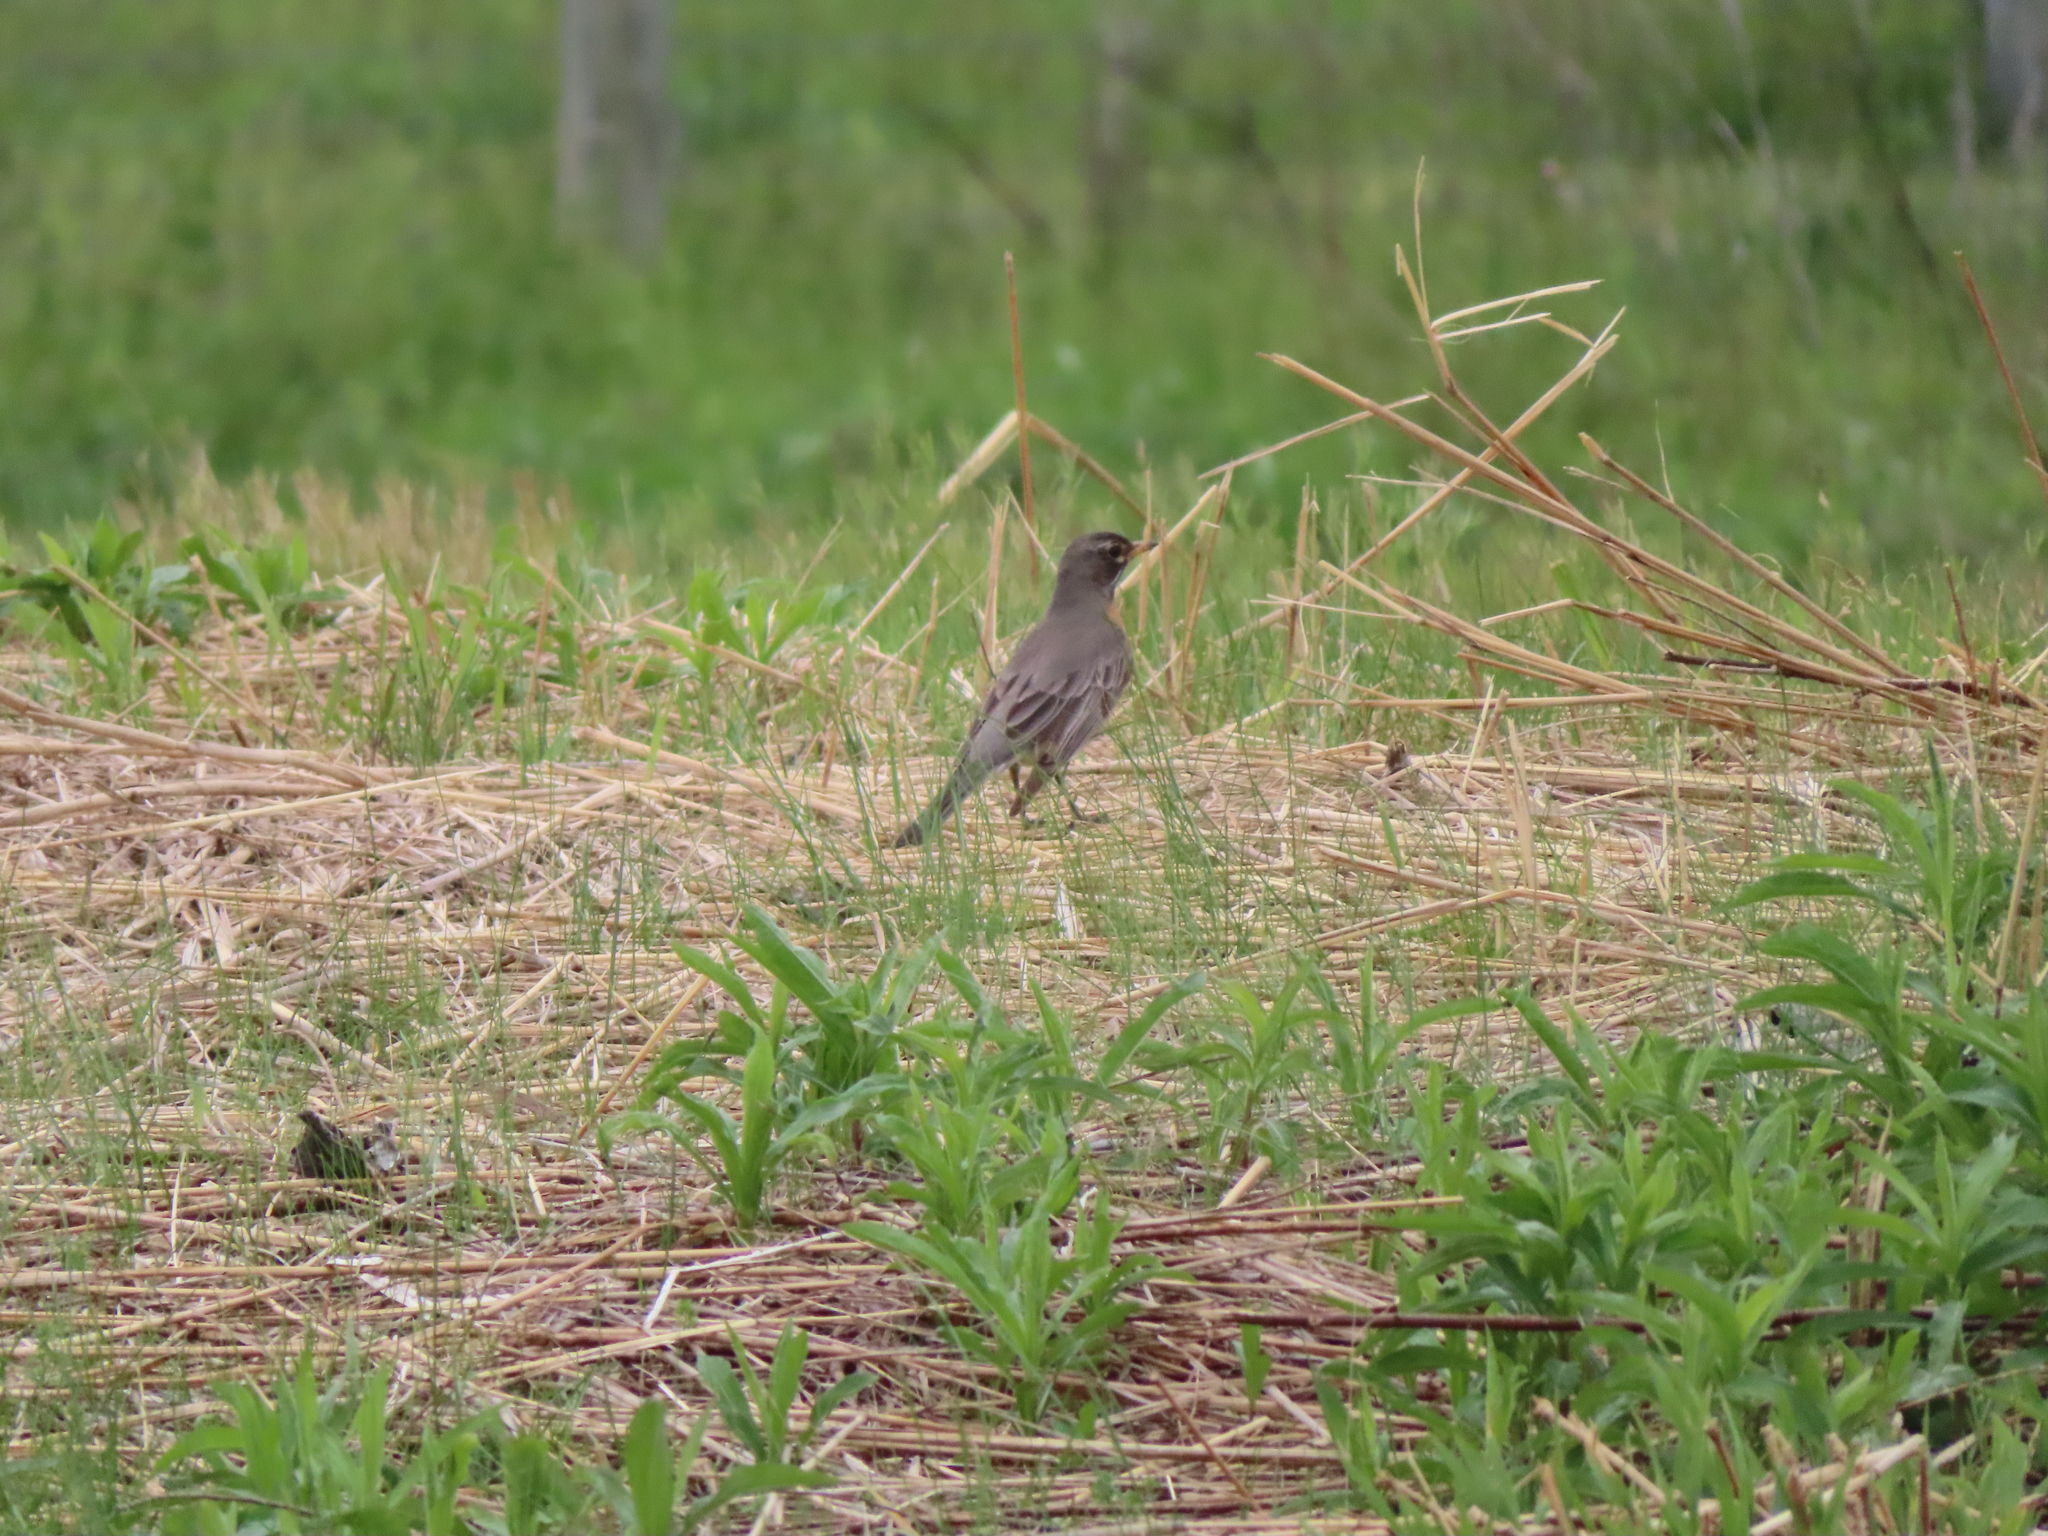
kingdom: Animalia
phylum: Chordata
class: Aves
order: Passeriformes
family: Turdidae
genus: Turdus
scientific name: Turdus migratorius
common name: American robin
